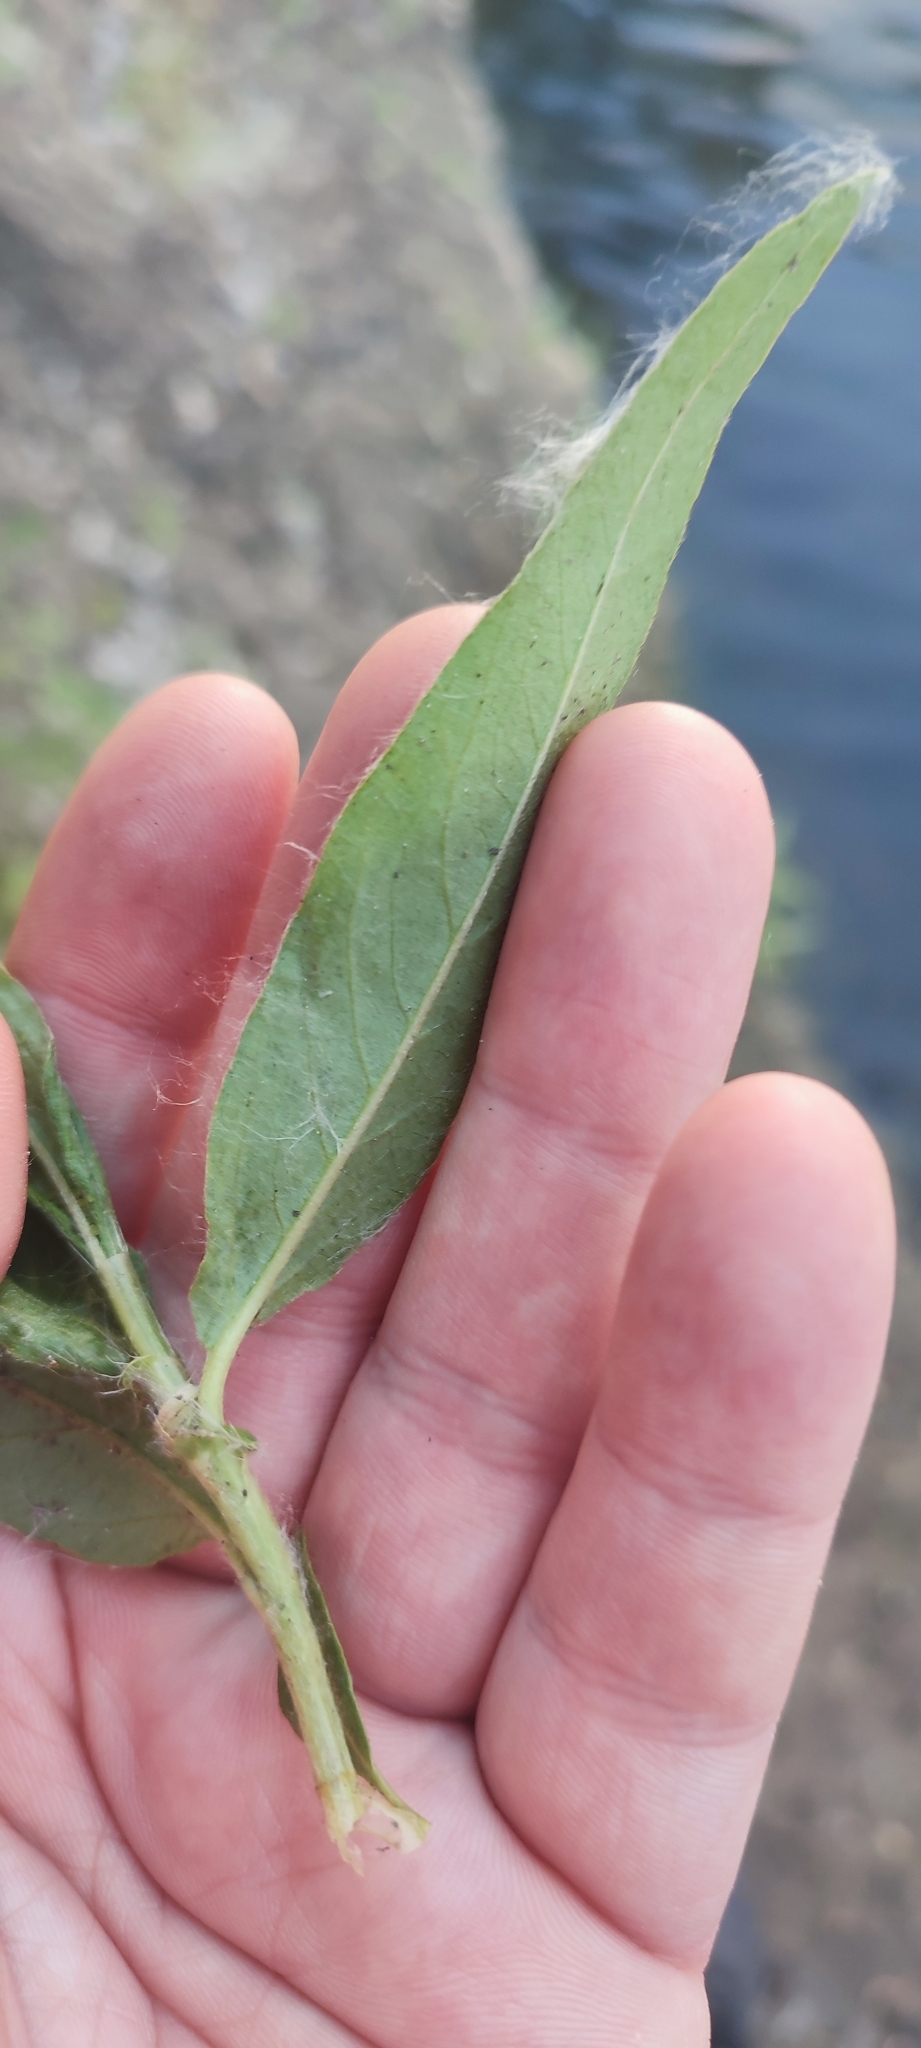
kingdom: Plantae
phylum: Tracheophyta
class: Magnoliopsida
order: Caryophyllales
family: Polygonaceae
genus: Persicaria
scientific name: Persicaria amphibia
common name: Amphibious bistort
